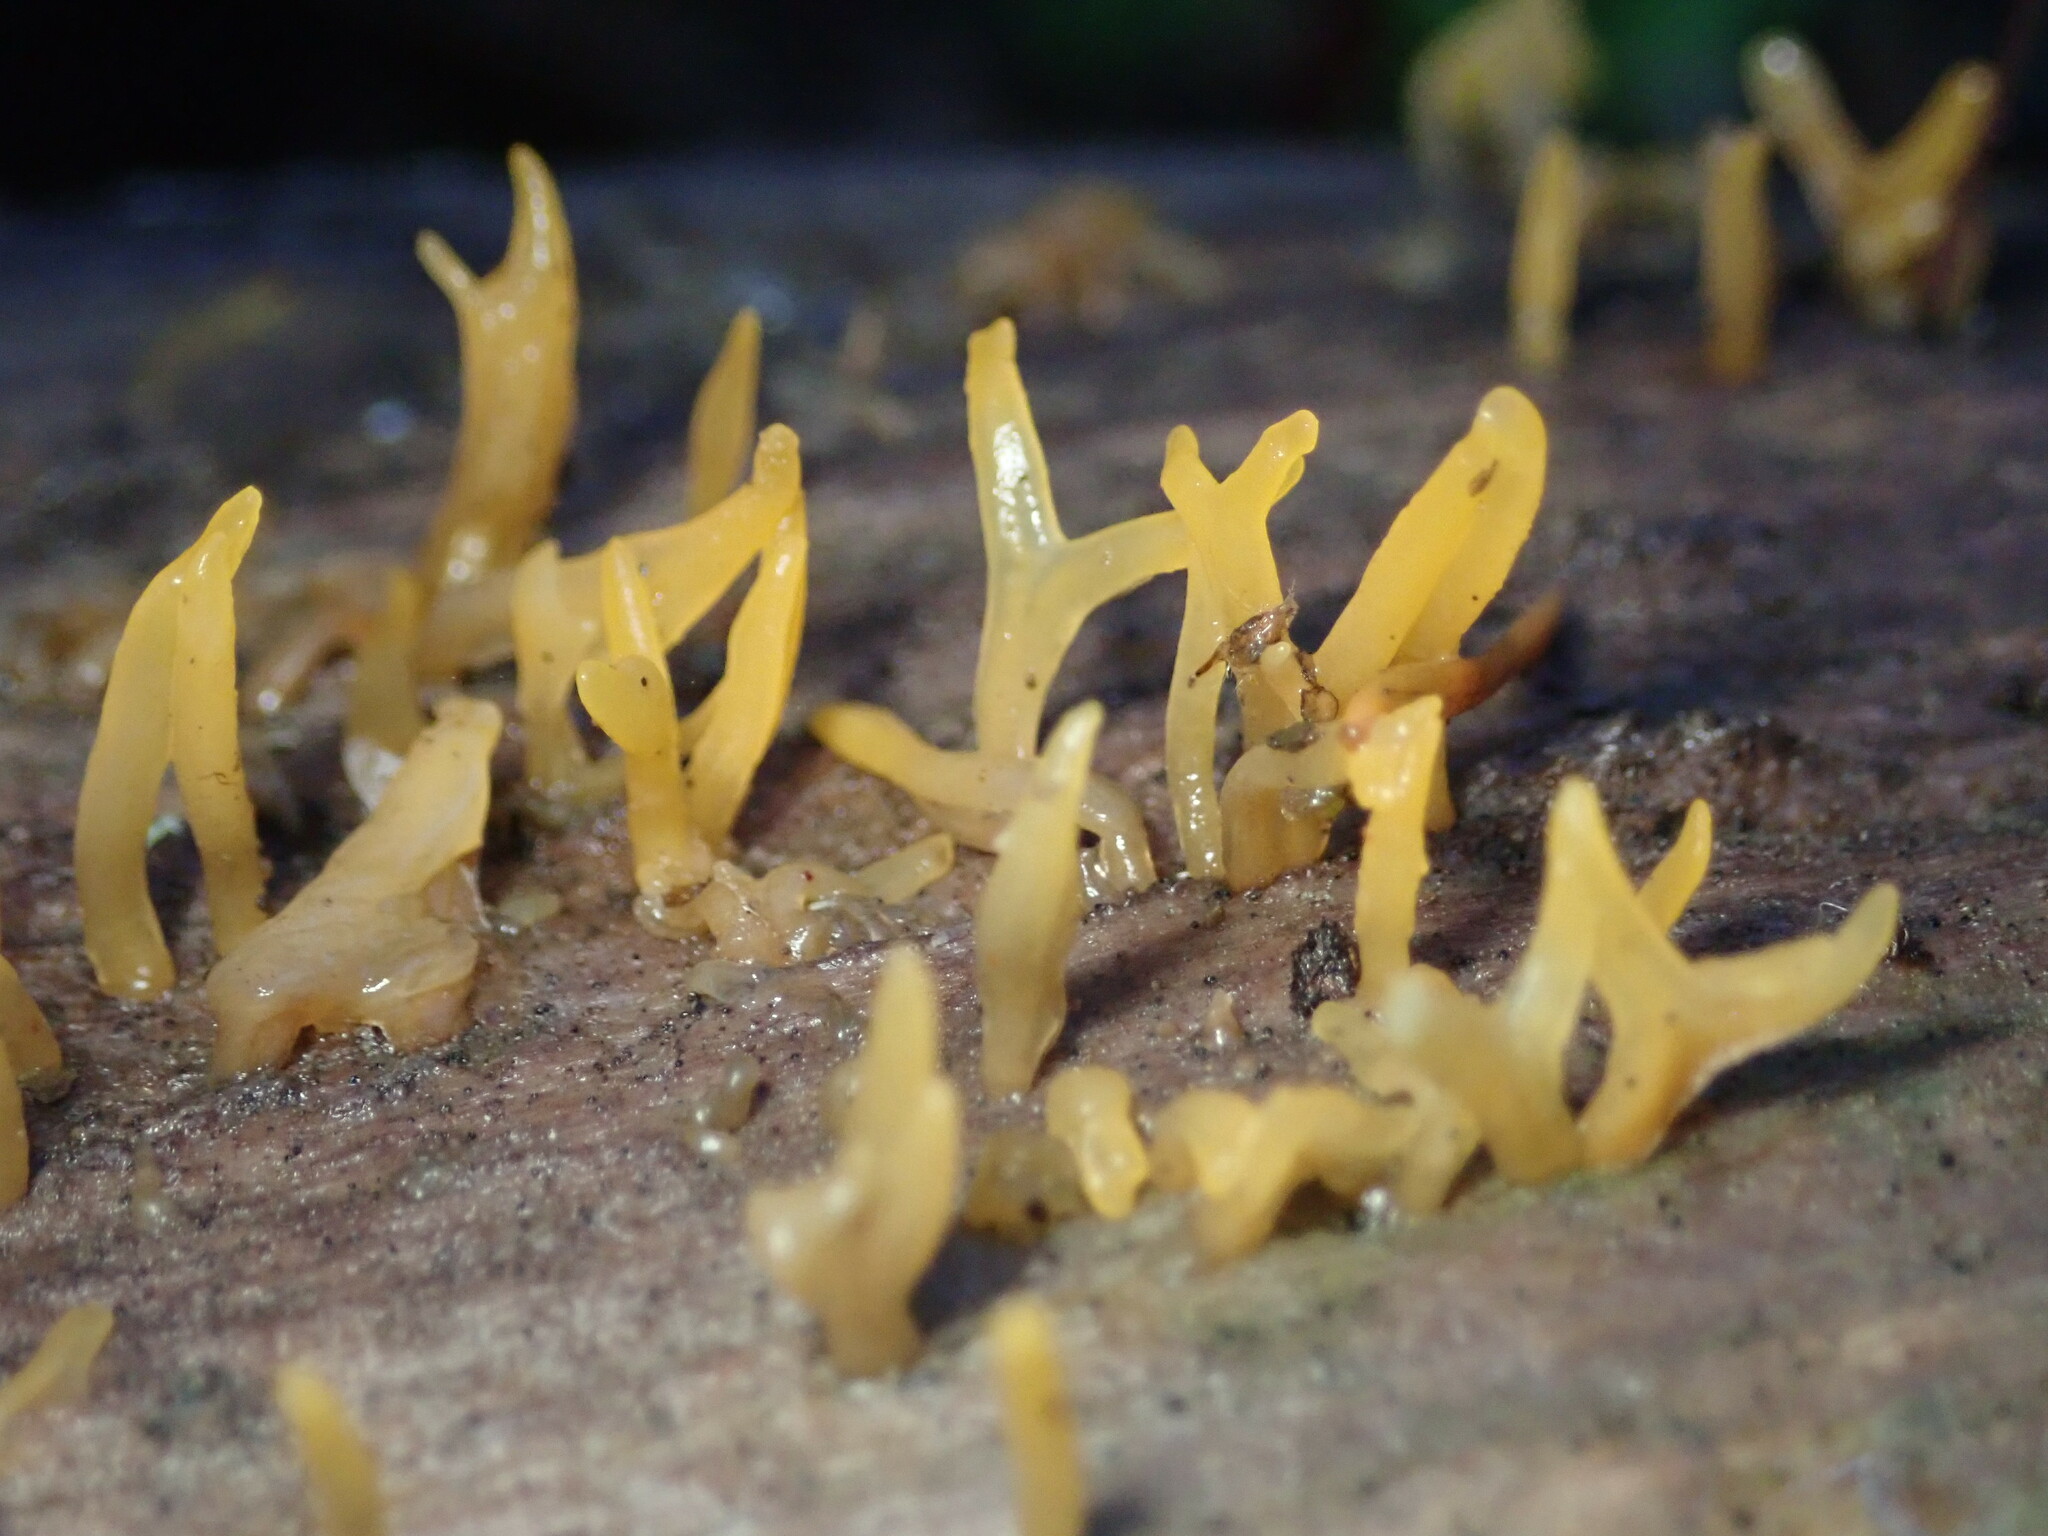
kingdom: Fungi
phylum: Basidiomycota
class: Dacrymycetes
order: Dacrymycetales
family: Dacrymycetaceae
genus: Calocera
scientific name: Calocera cornea
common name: Small stagshorn
